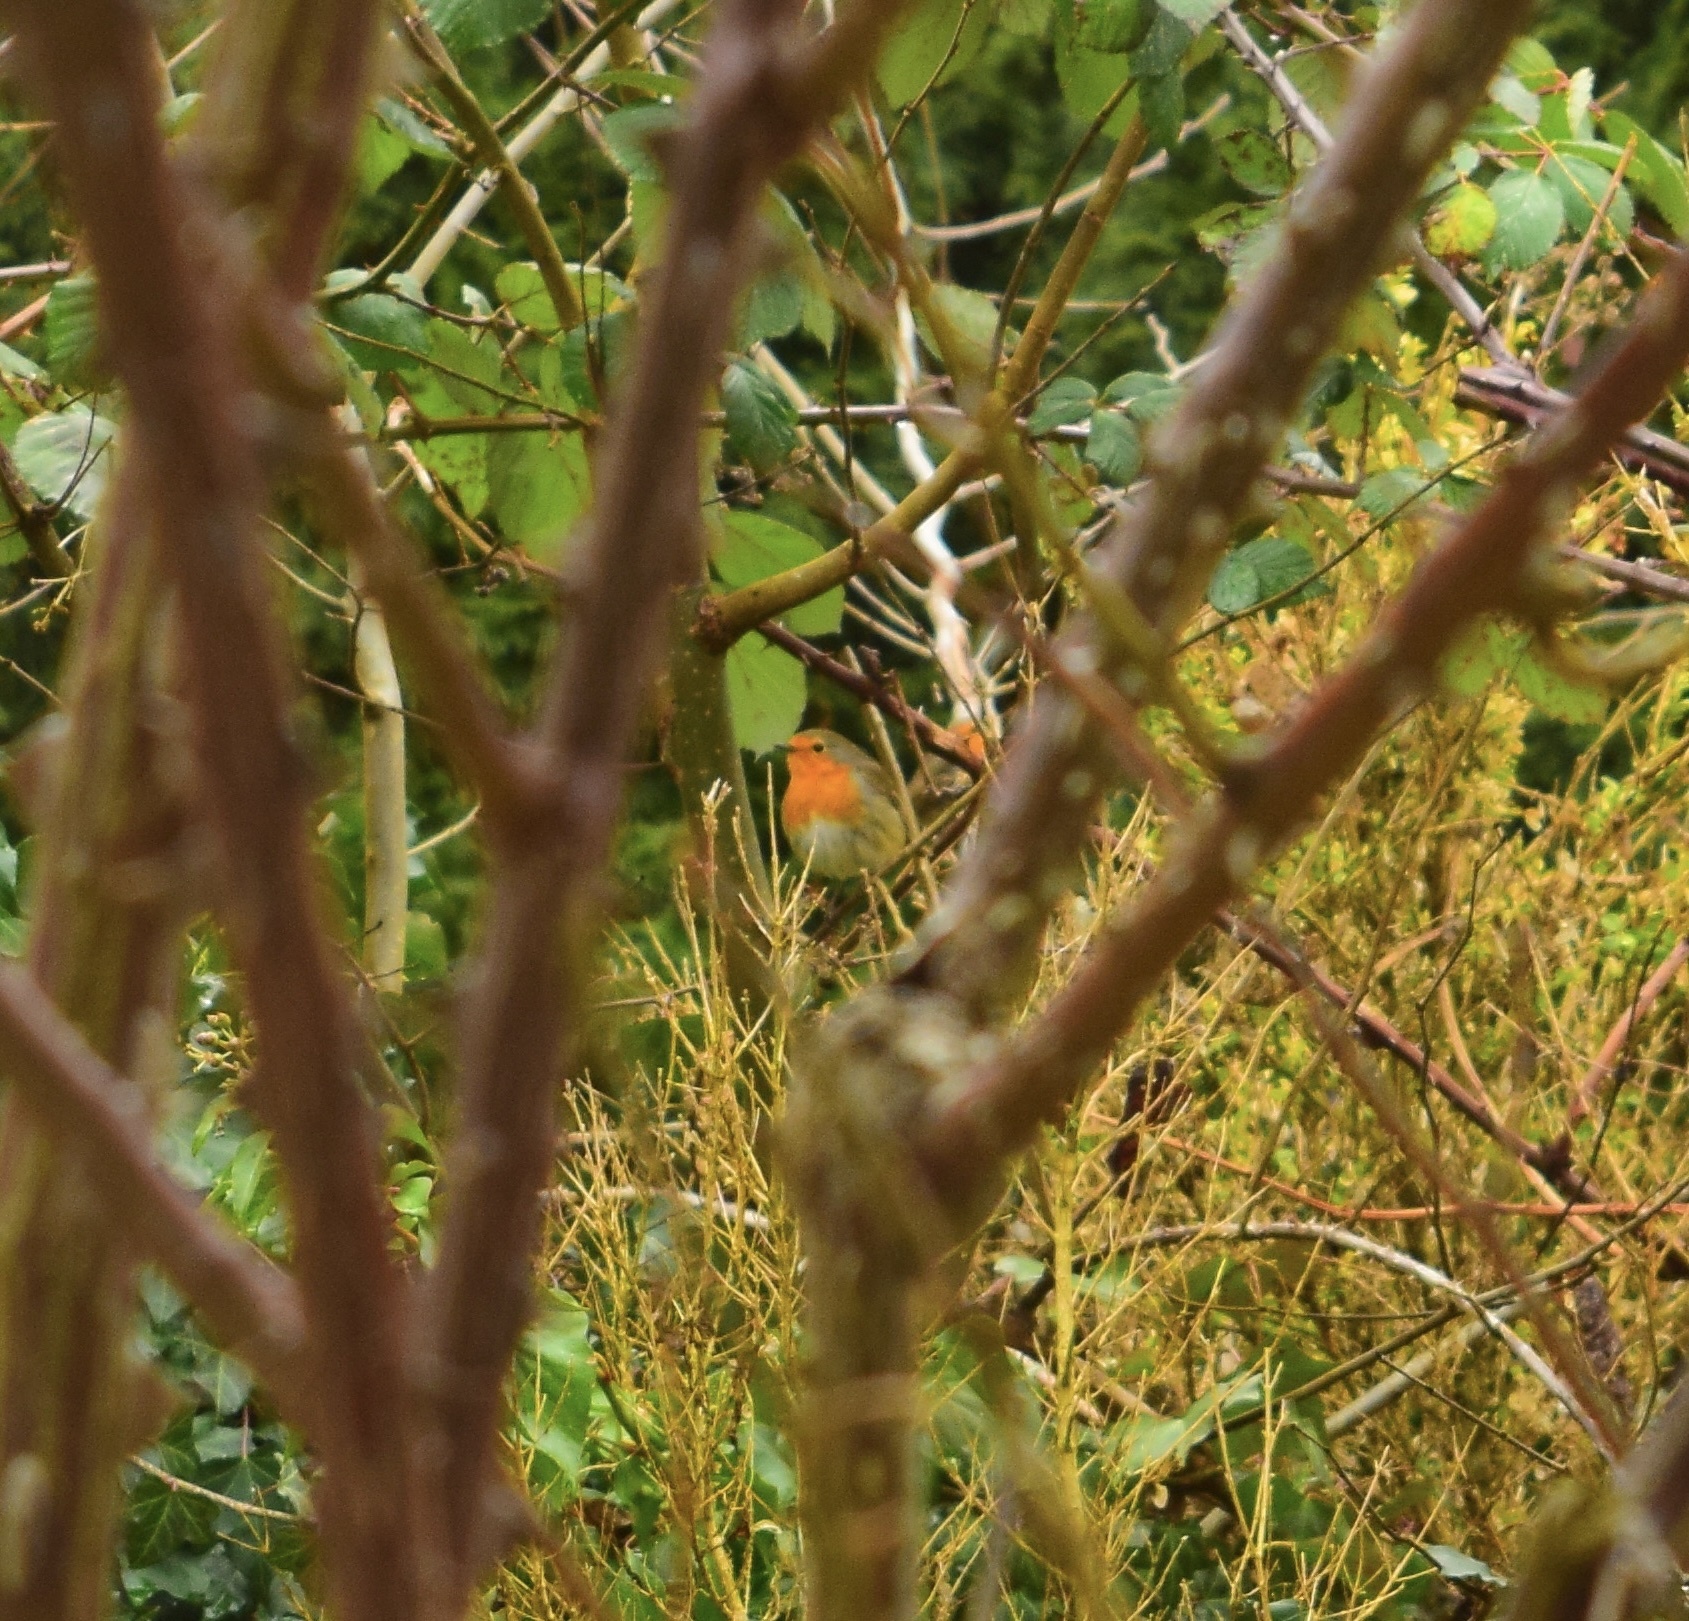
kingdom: Animalia
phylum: Chordata
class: Aves
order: Passeriformes
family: Muscicapidae
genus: Erithacus
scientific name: Erithacus rubecula
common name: European robin
